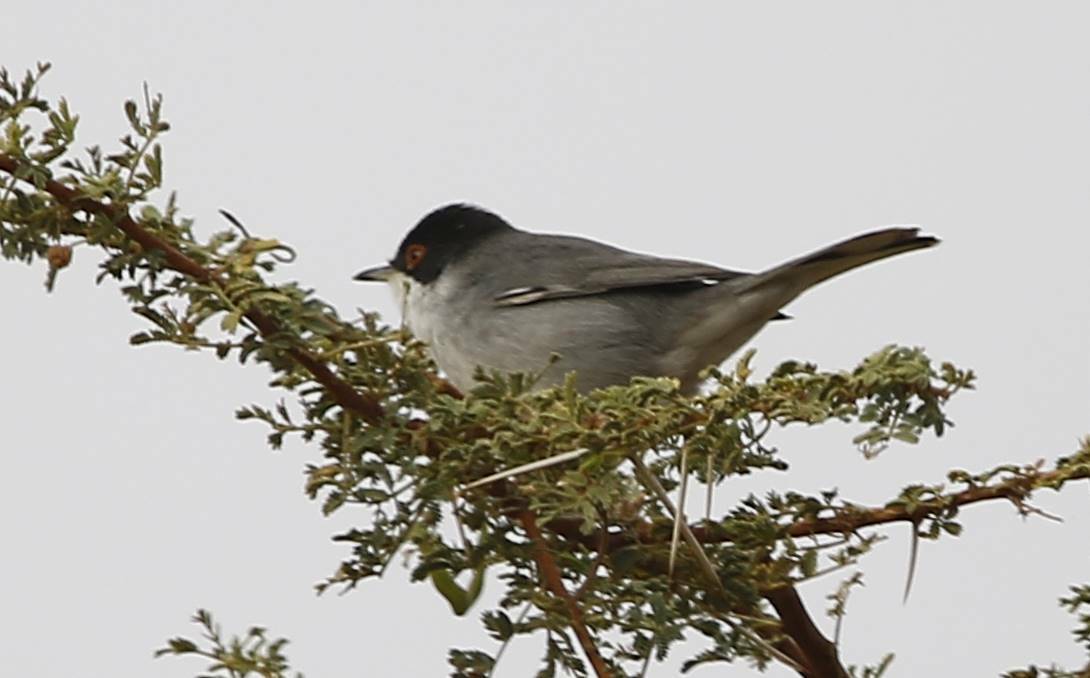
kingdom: Animalia
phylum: Chordata
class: Aves
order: Passeriformes
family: Sylviidae
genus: Curruca
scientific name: Curruca melanocephala
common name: Sardinian warbler
